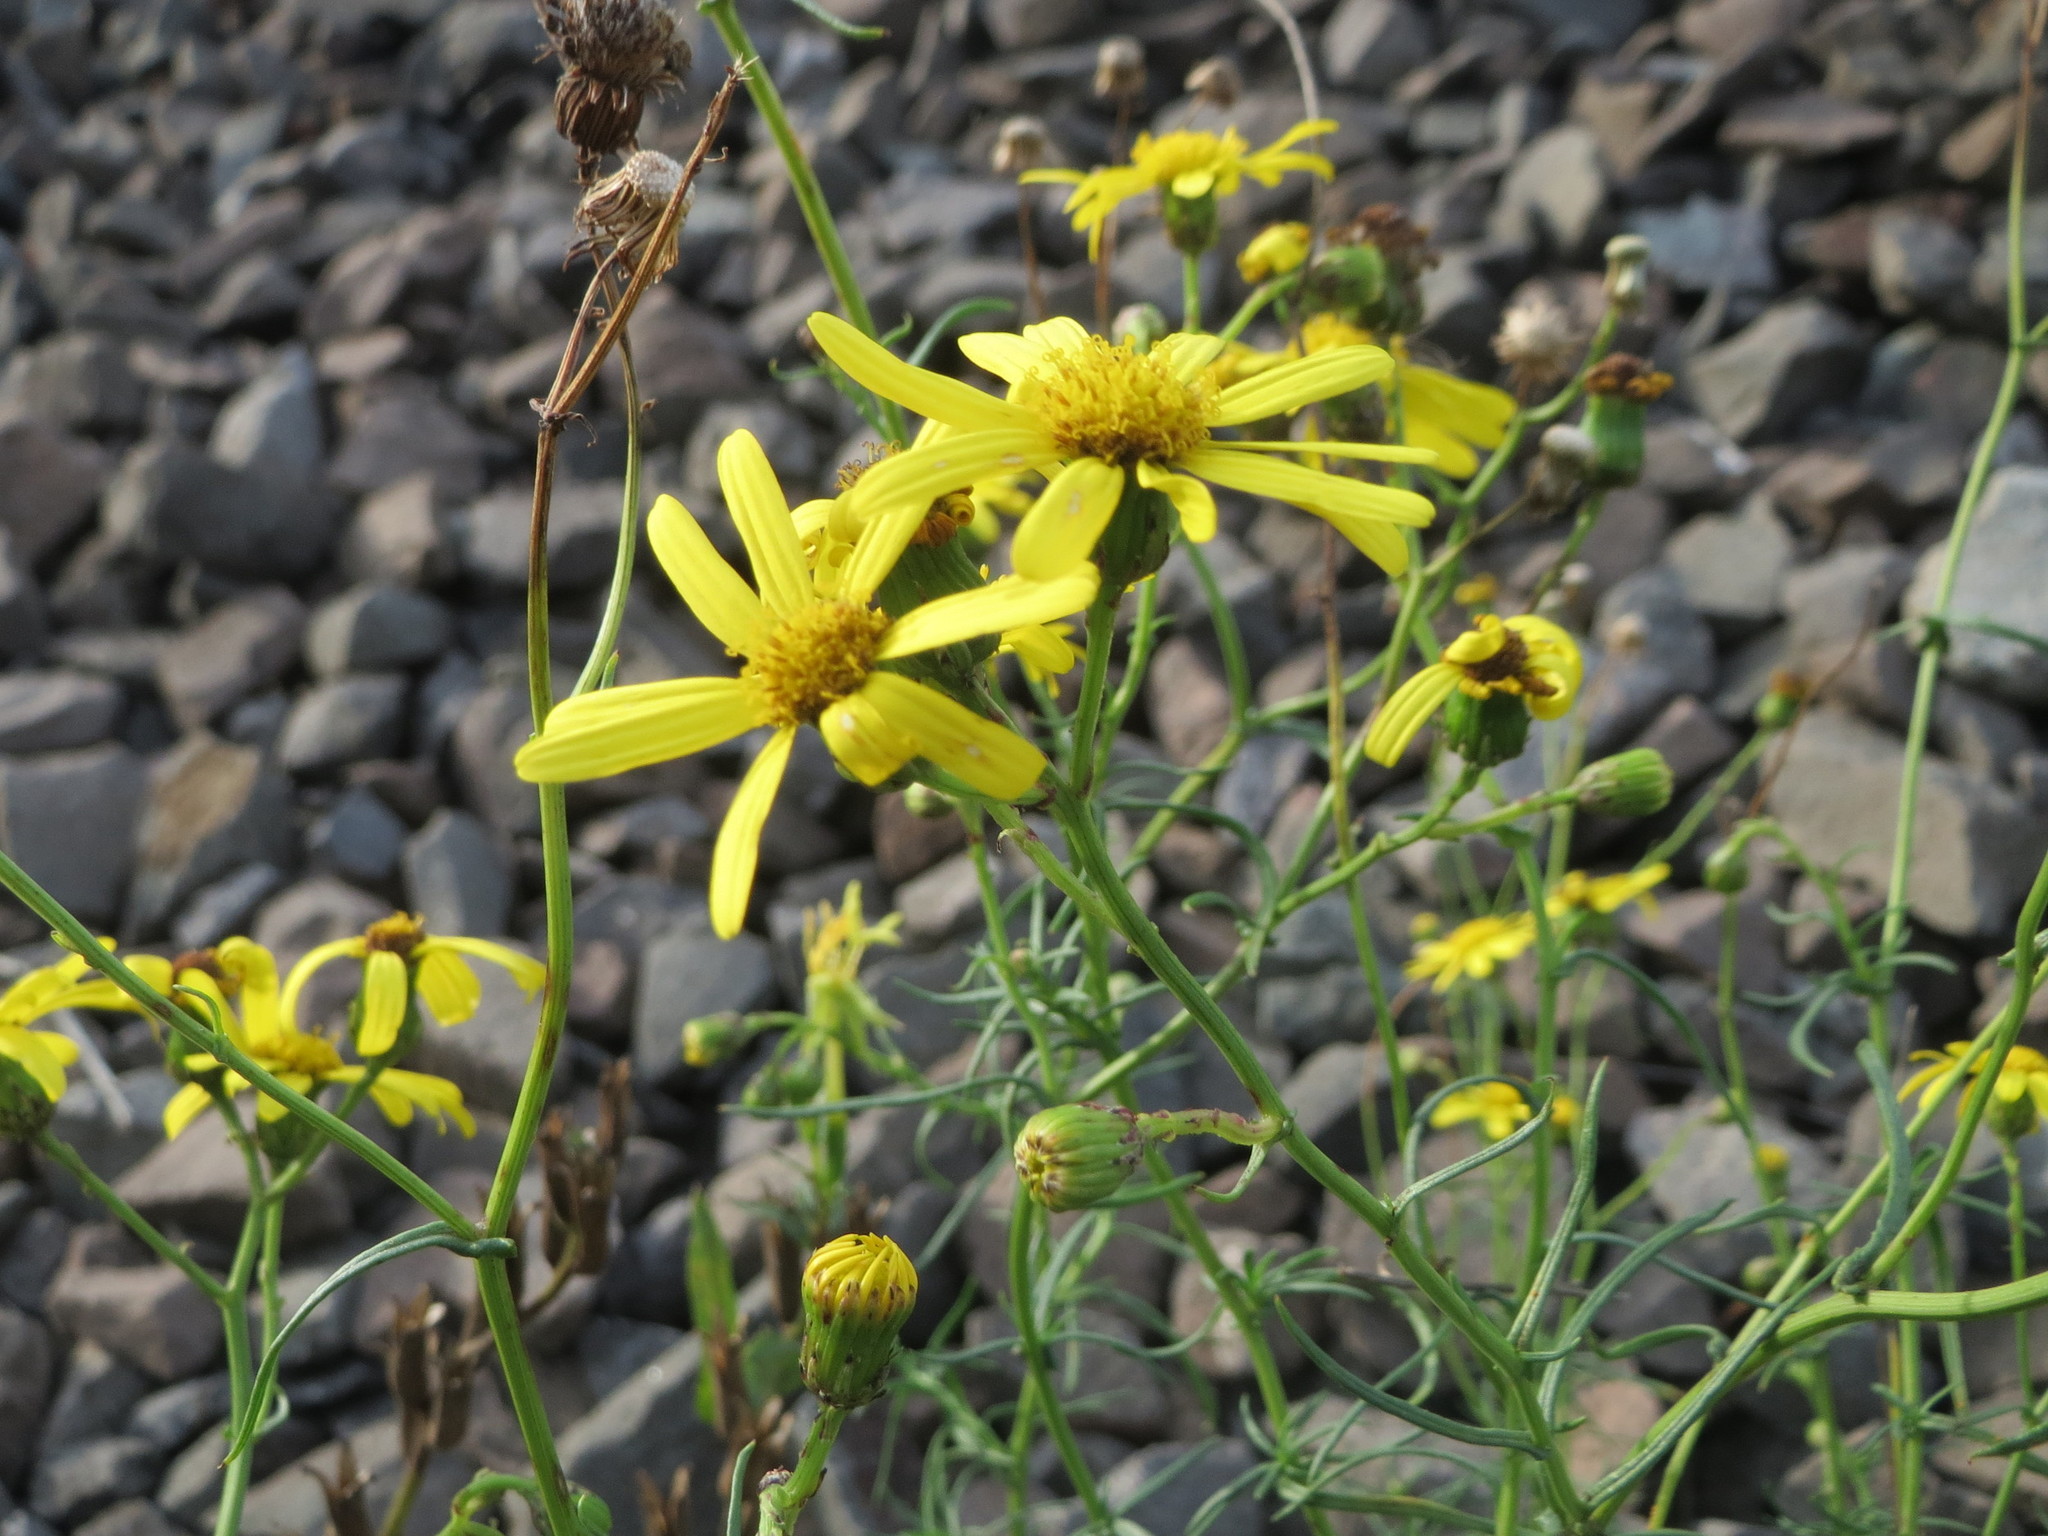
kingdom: Plantae
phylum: Tracheophyta
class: Magnoliopsida
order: Asterales
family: Asteraceae
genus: Senecio
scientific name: Senecio inaequidens
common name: Narrow-leaved ragwort
